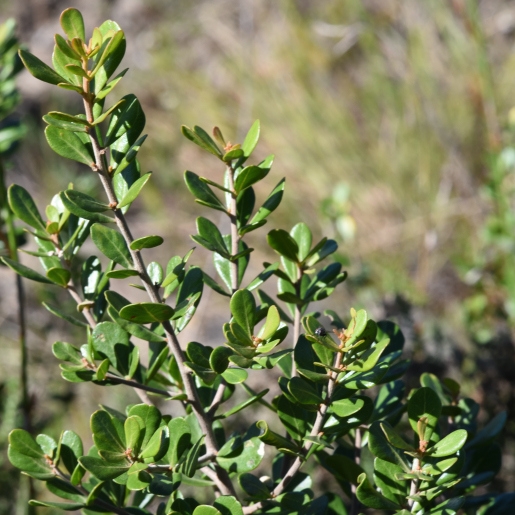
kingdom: Plantae
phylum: Tracheophyta
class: Magnoliopsida
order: Sapindales
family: Anacardiaceae
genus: Searsia
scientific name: Searsia lucida
